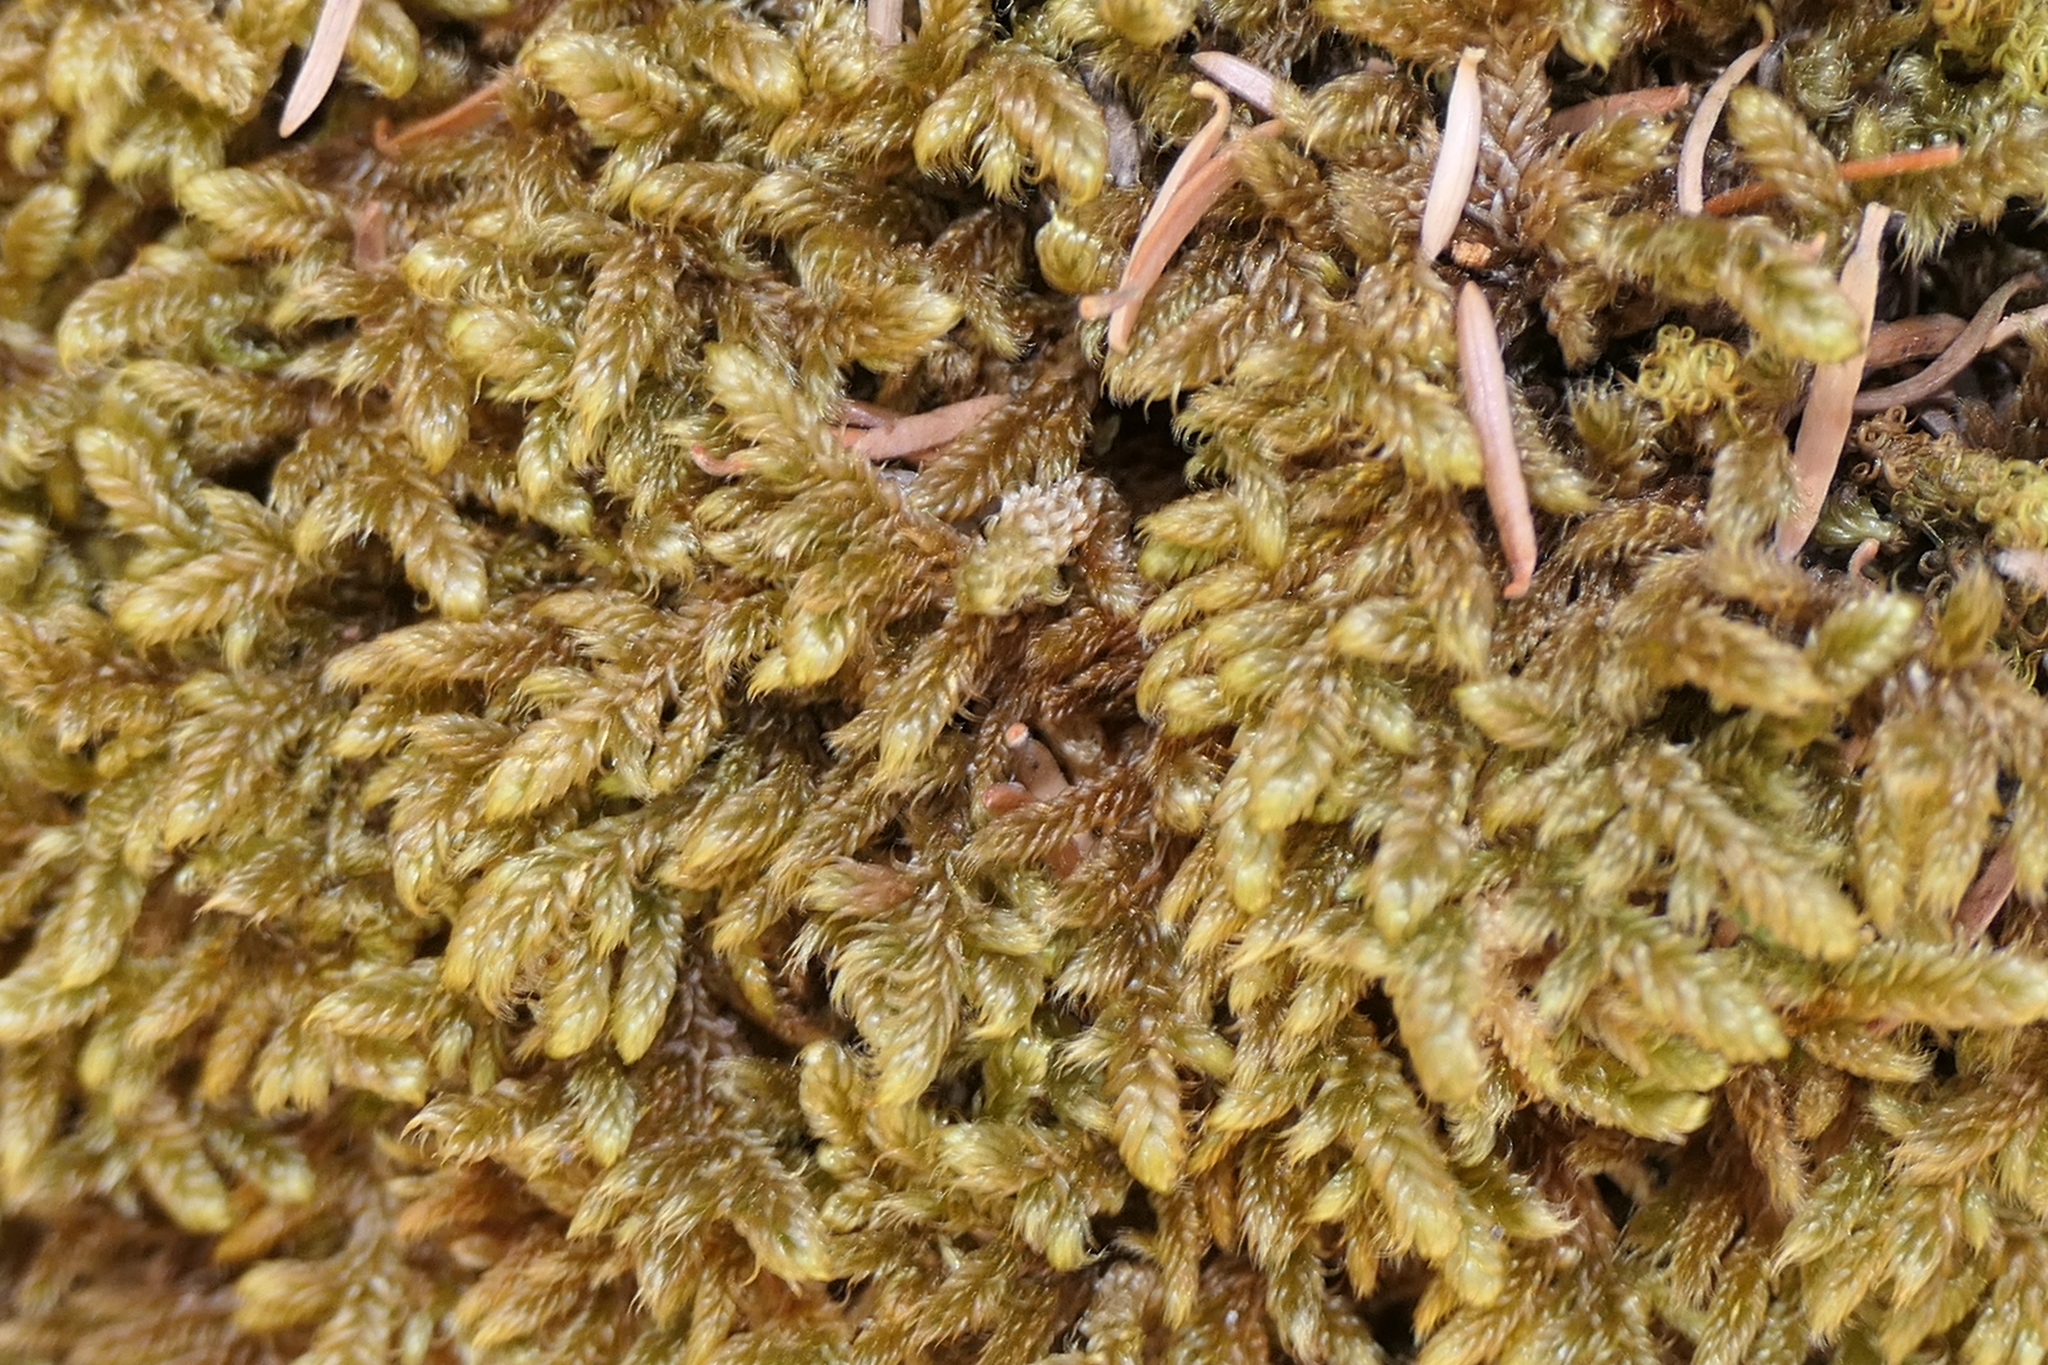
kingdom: Plantae
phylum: Bryophyta
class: Bryopsida
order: Hypnales
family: Hypnaceae
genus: Hypnum
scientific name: Hypnum cupressiforme
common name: Cypress-leaved plait-moss
